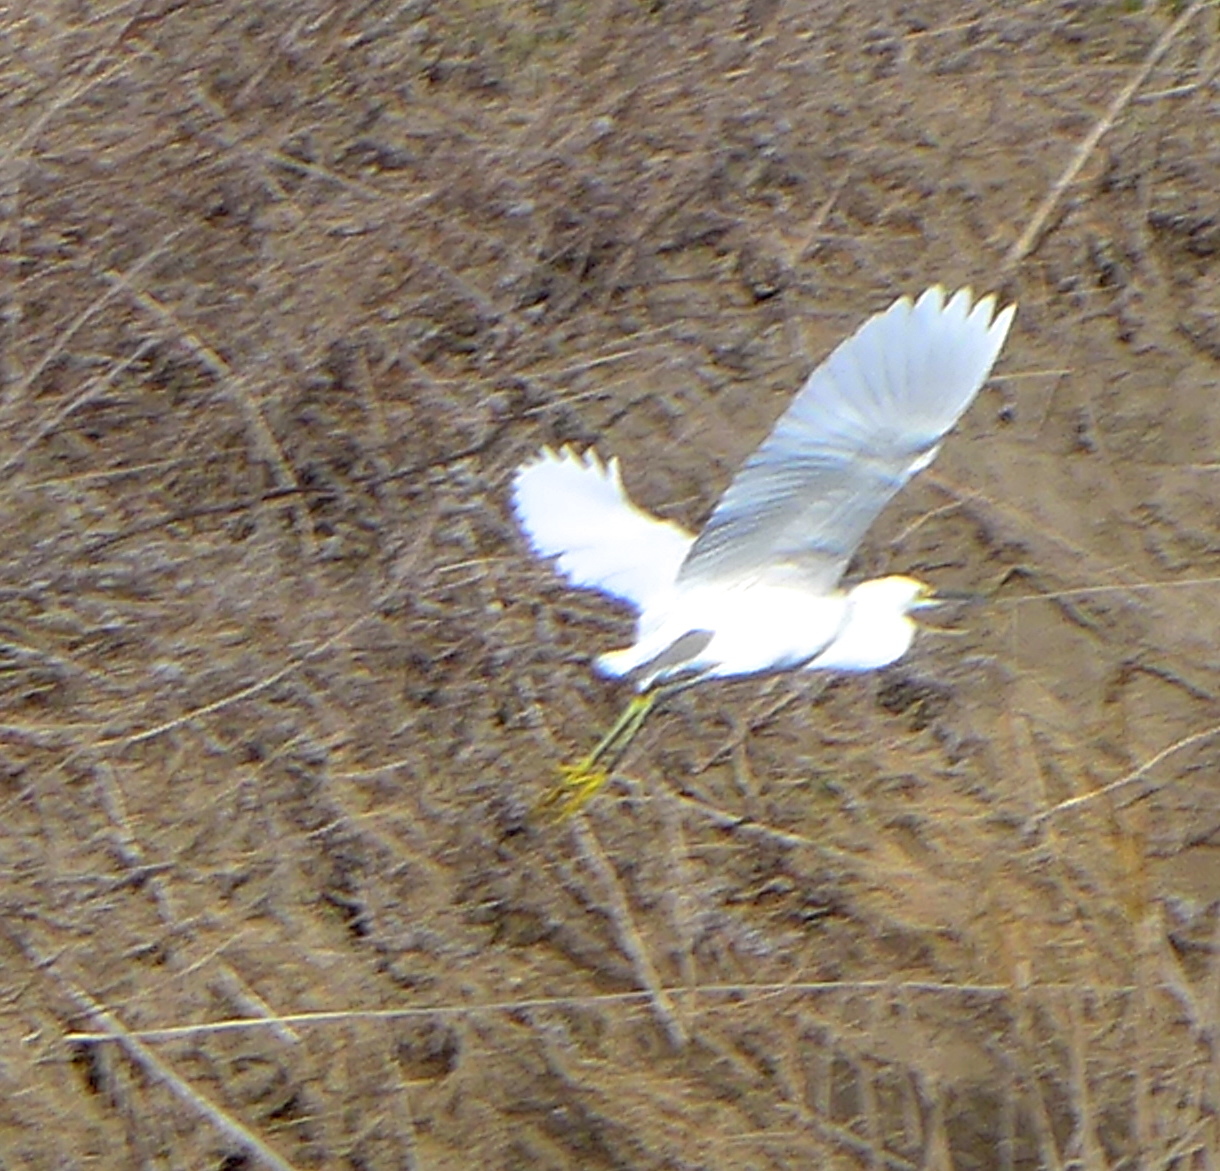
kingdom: Animalia
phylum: Chordata
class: Aves
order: Pelecaniformes
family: Ardeidae
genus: Egretta
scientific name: Egretta thula
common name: Snowy egret
